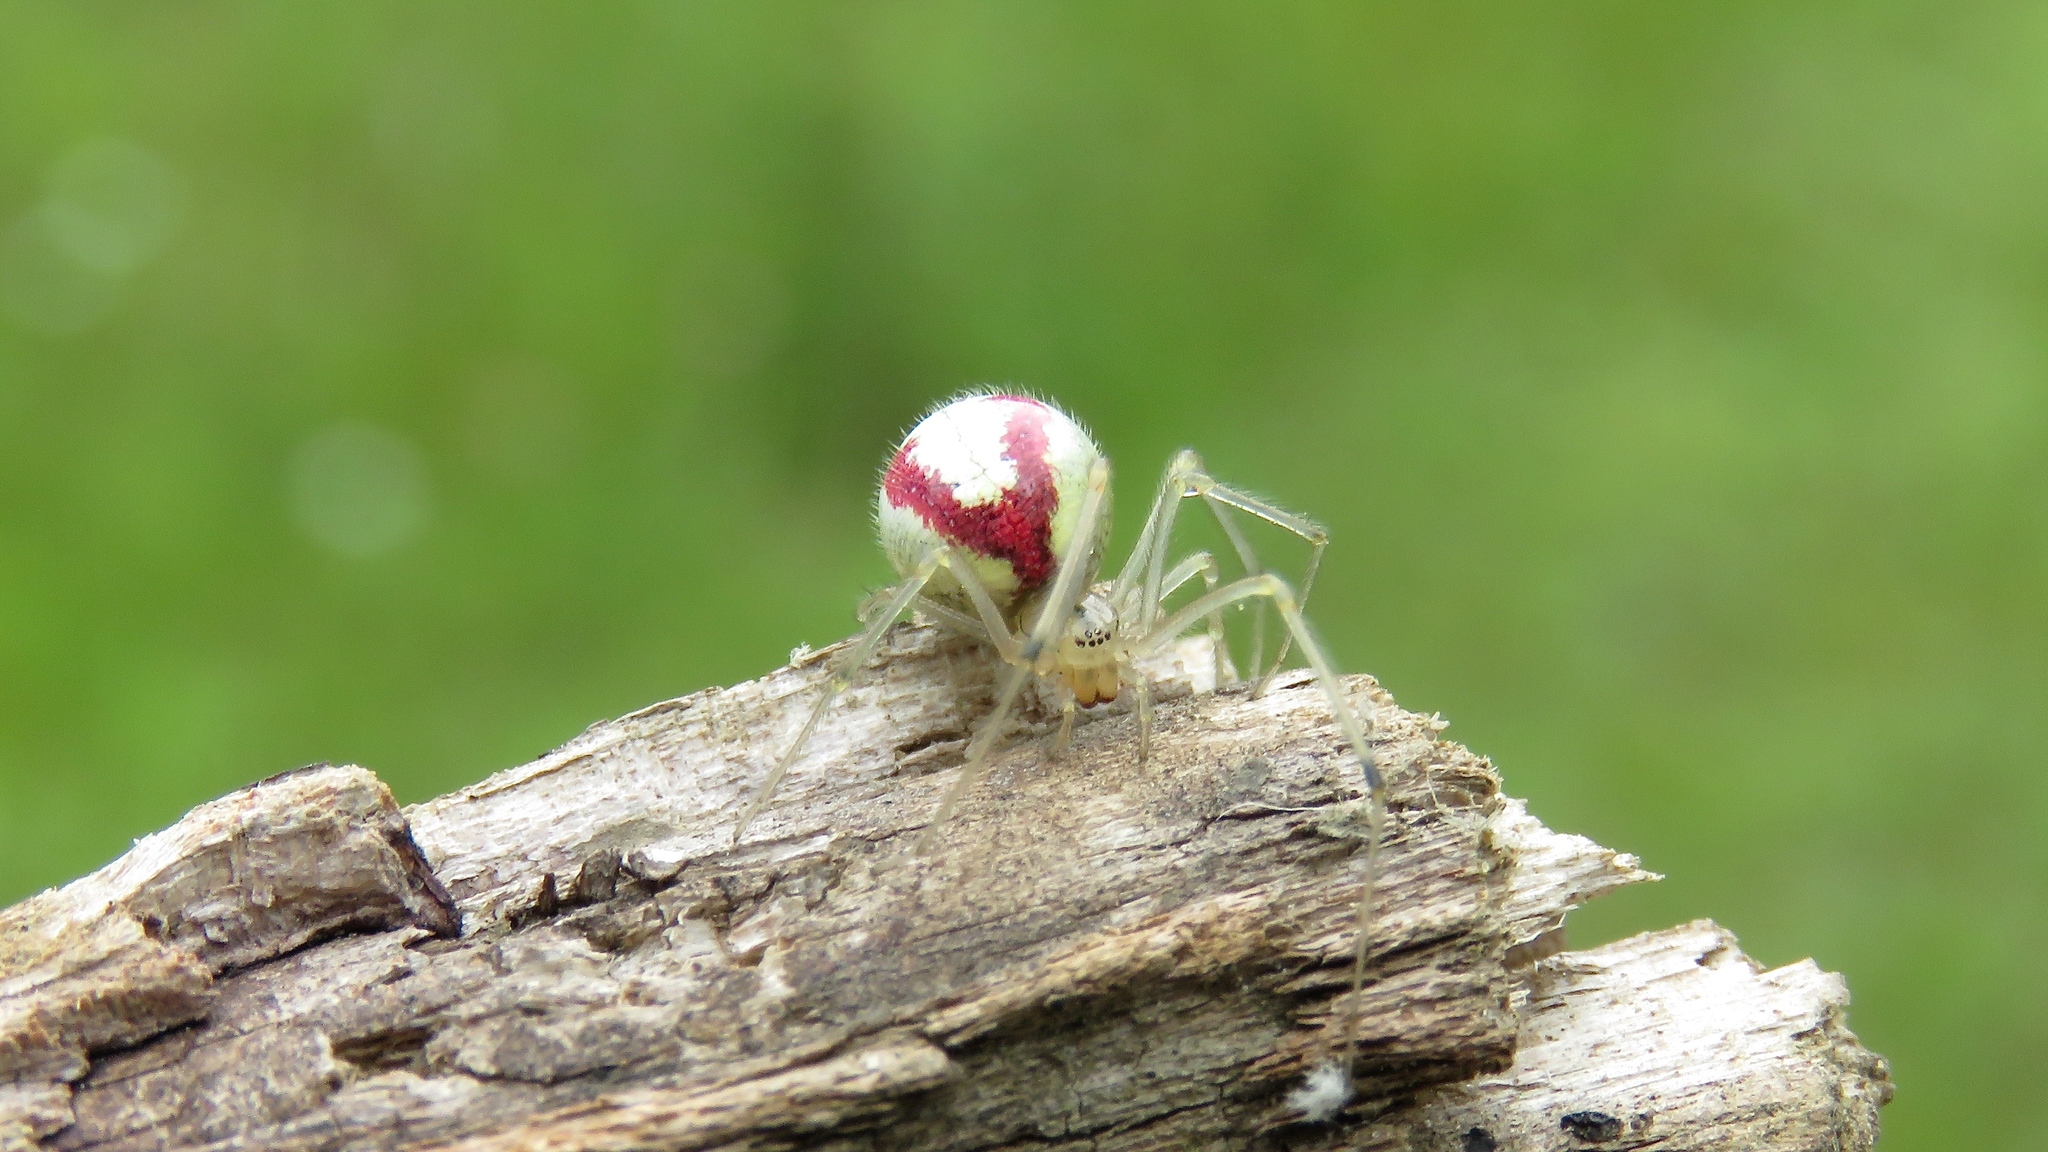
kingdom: Animalia
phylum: Arthropoda
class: Arachnida
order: Araneae
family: Theridiidae
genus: Enoplognatha
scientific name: Enoplognatha ovata
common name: Common candy-striped spider
